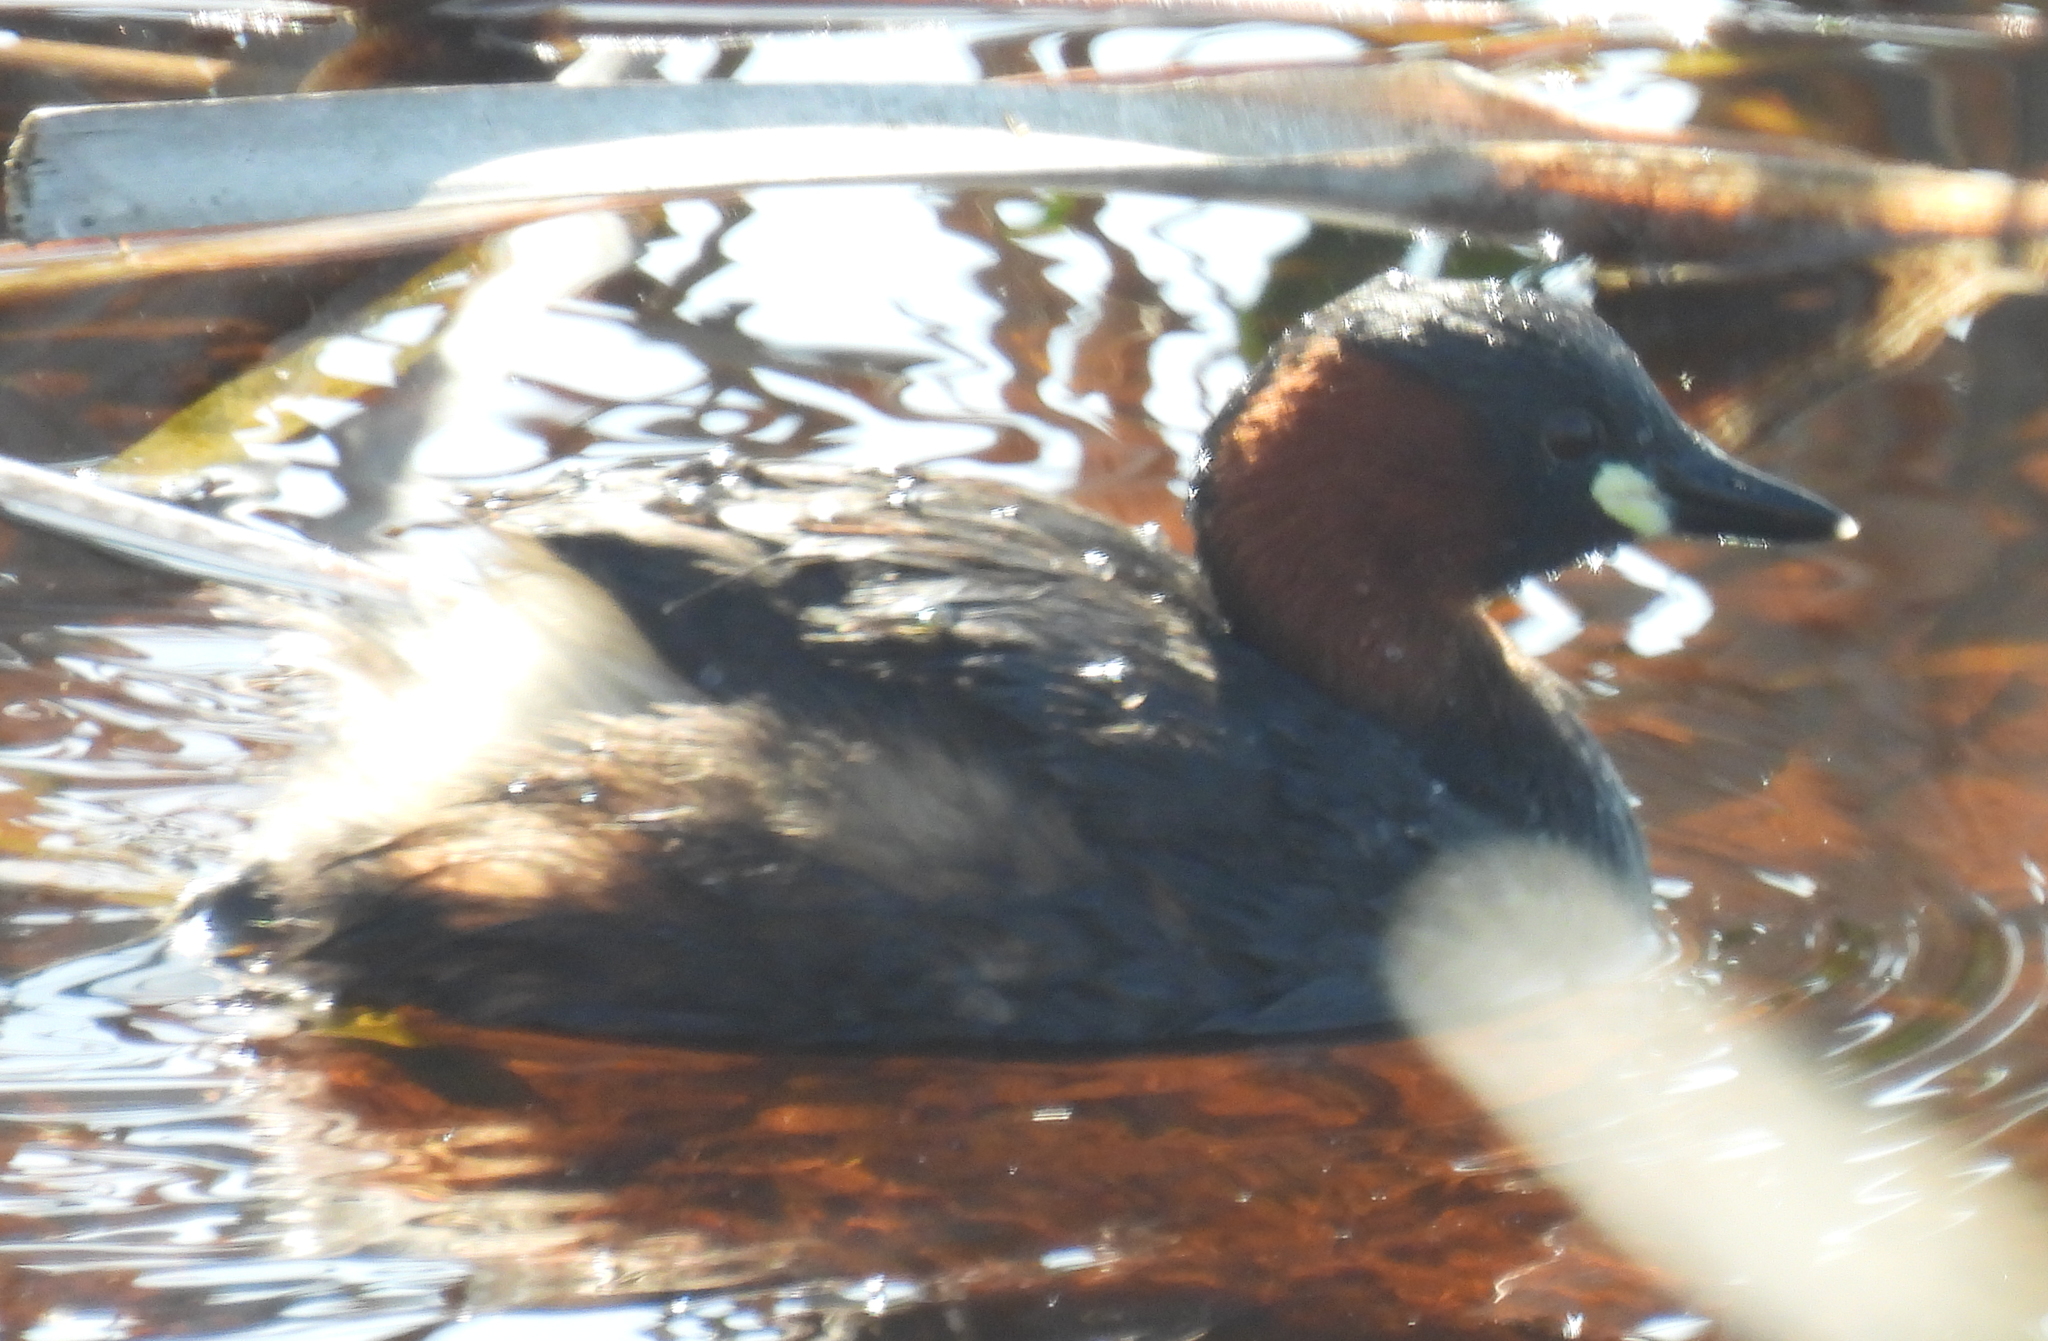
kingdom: Animalia
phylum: Chordata
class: Aves
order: Podicipediformes
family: Podicipedidae
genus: Tachybaptus
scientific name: Tachybaptus ruficollis
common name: Little grebe
